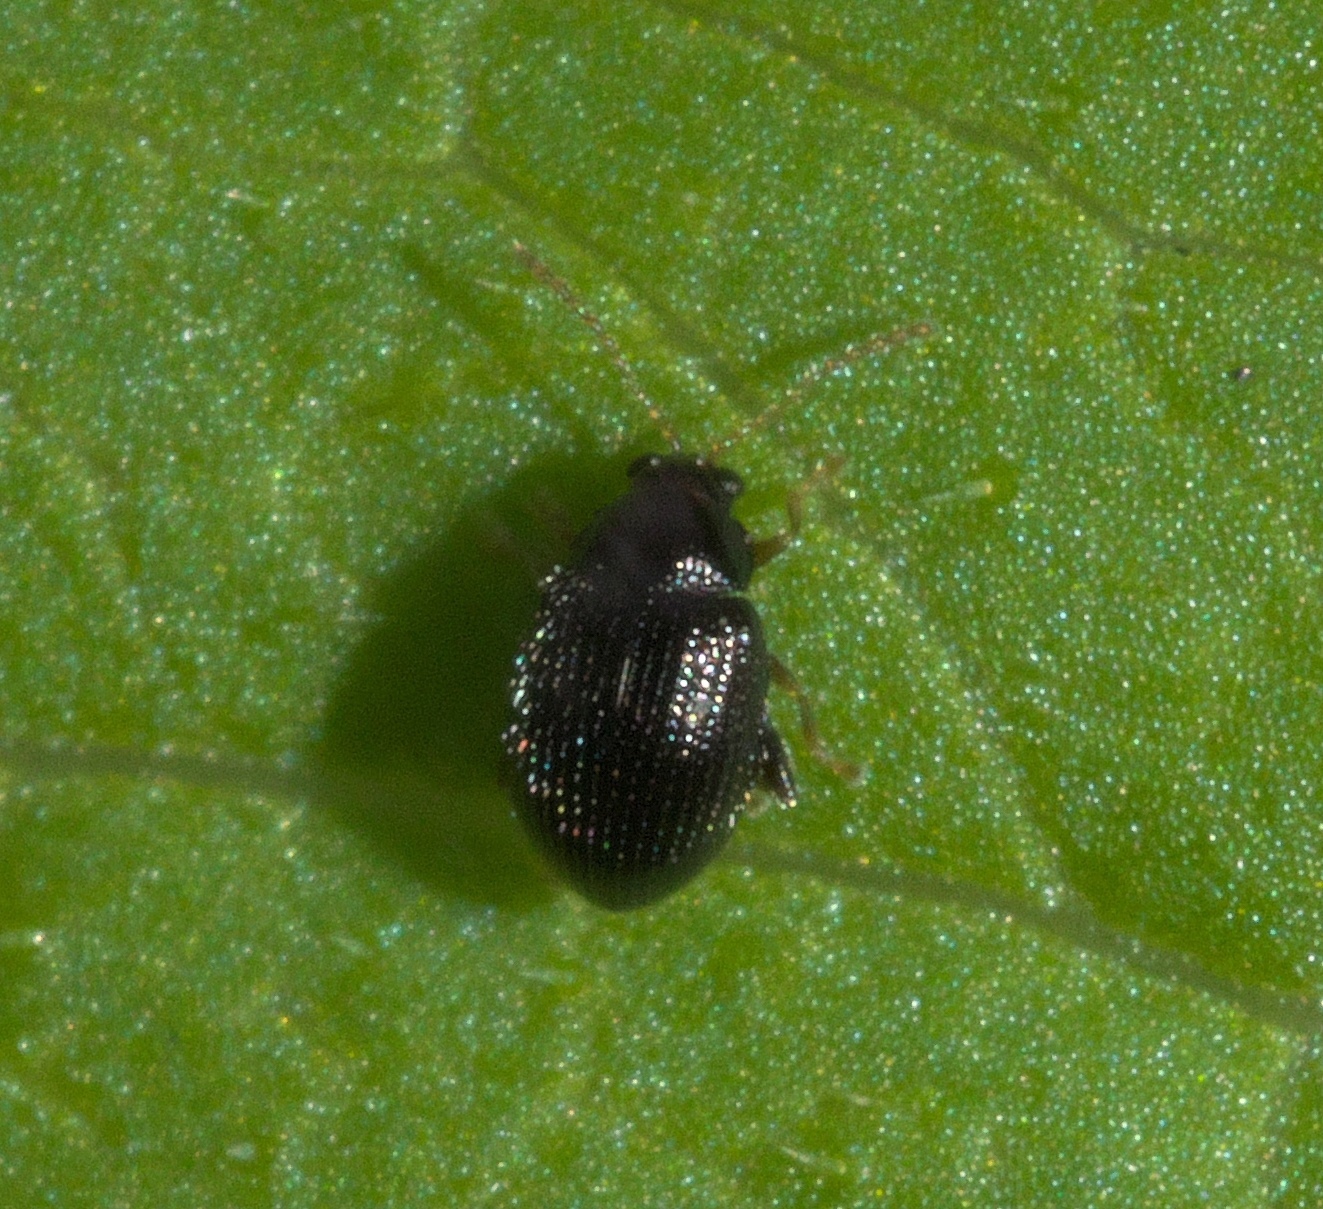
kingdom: Animalia
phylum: Arthropoda
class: Insecta
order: Coleoptera
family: Chrysomelidae
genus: Epitrix
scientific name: Epitrix brevis
